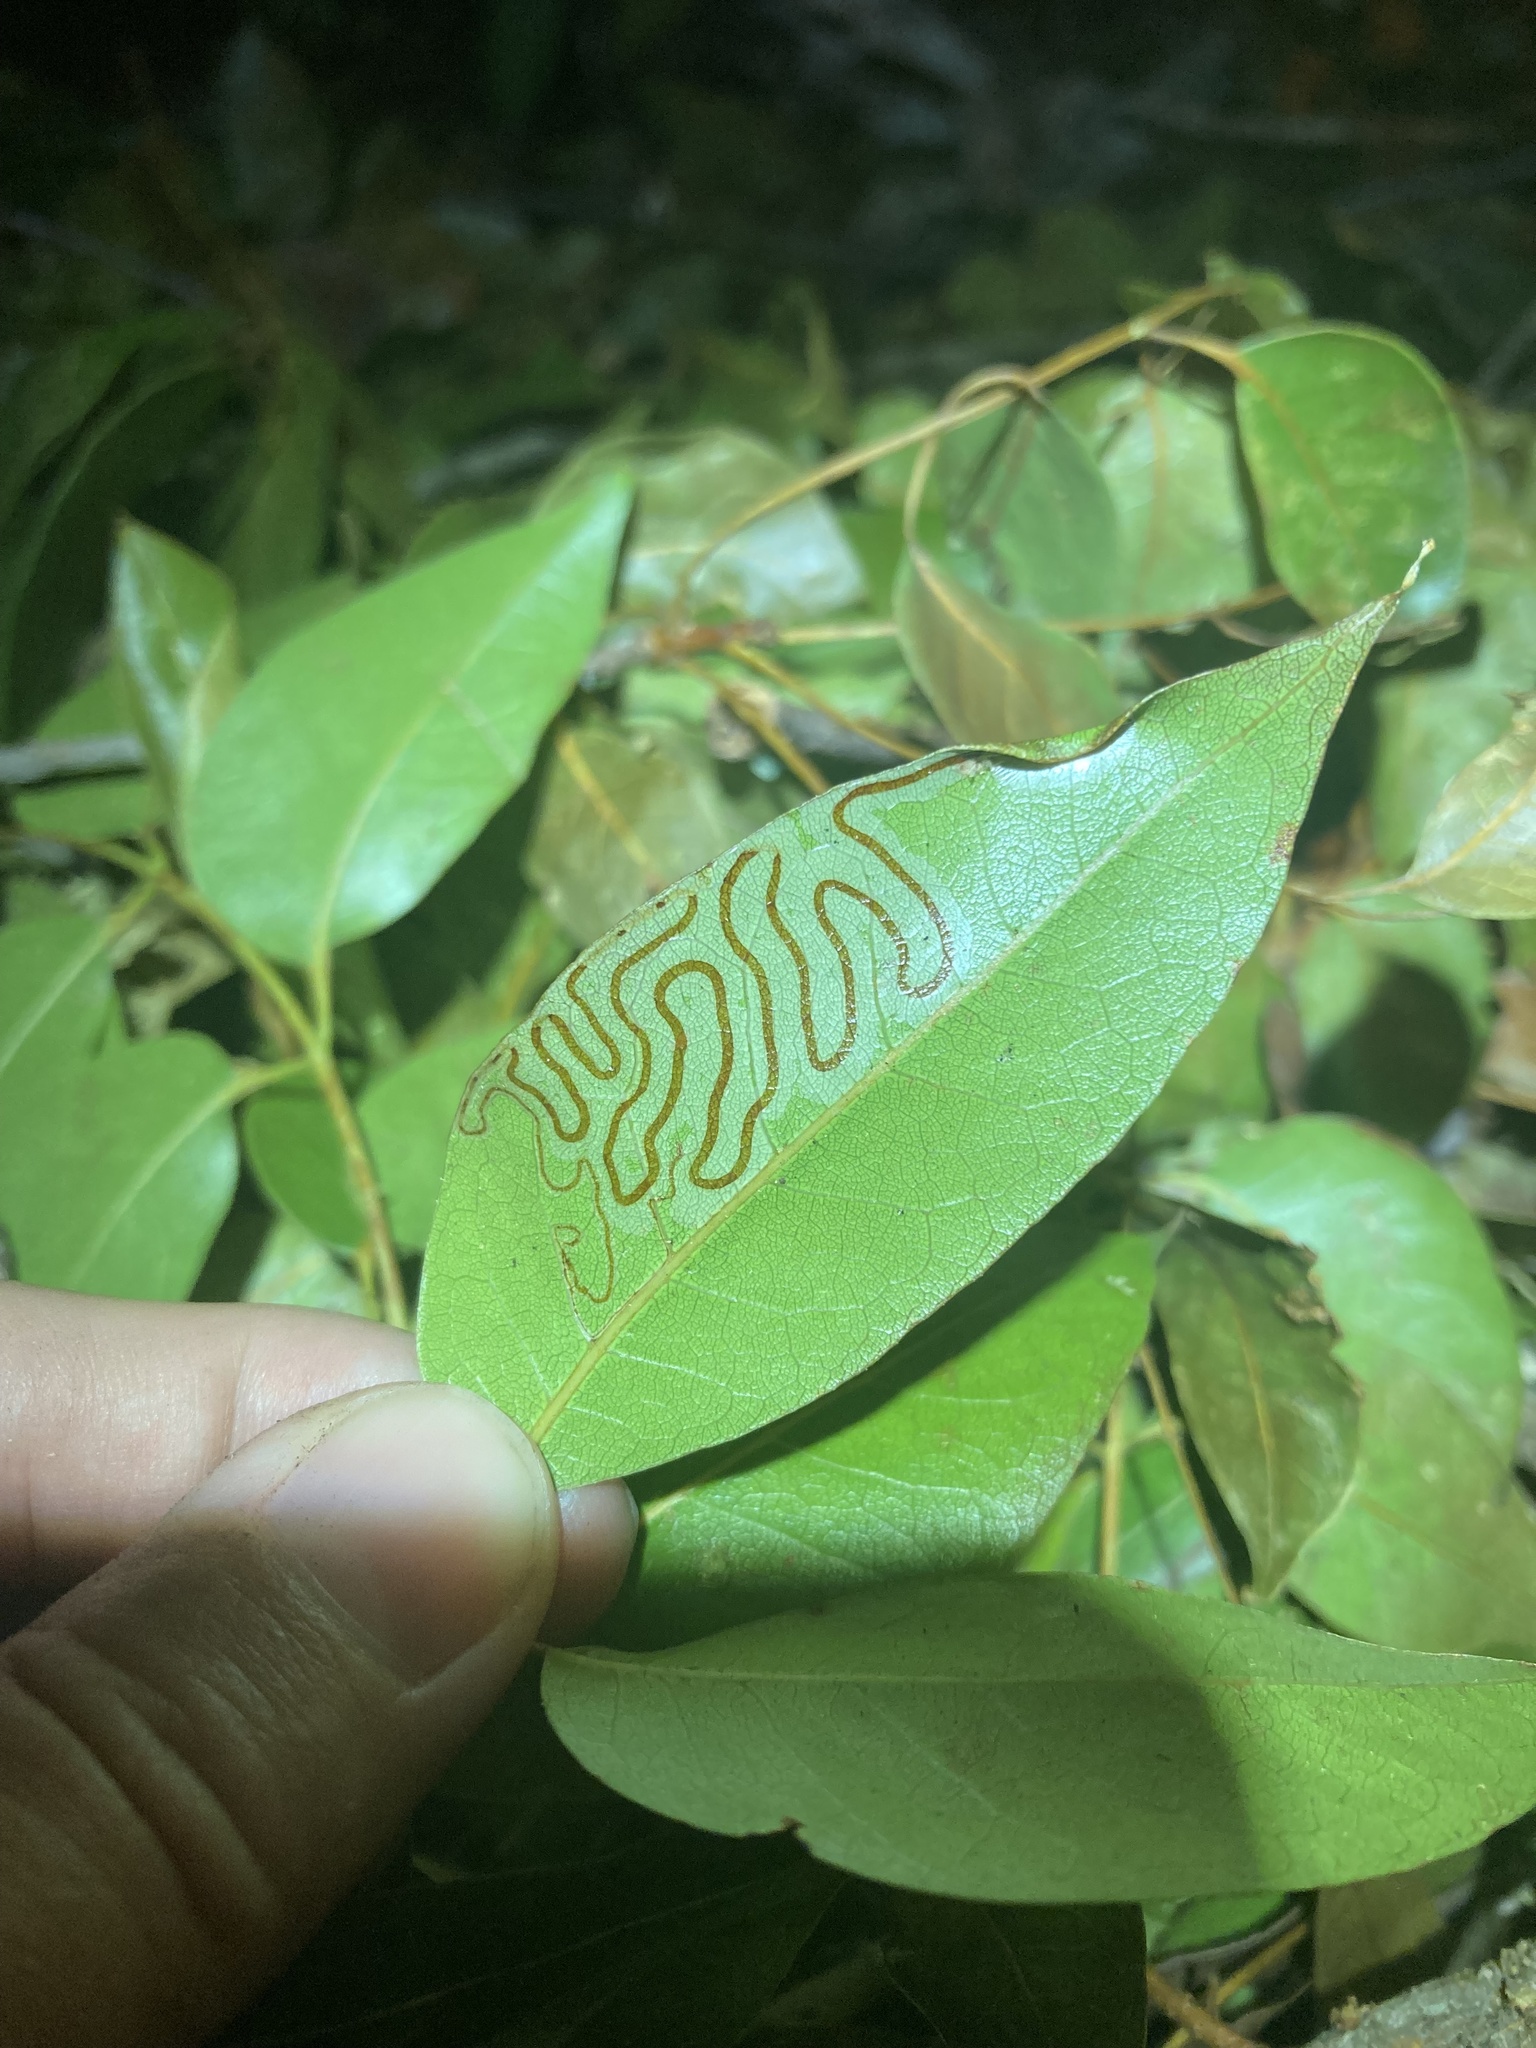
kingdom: Animalia
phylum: Arthropoda
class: Insecta
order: Lepidoptera
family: Gracillariidae
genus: Phyllocnistis
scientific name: Phyllocnistis meliacella
